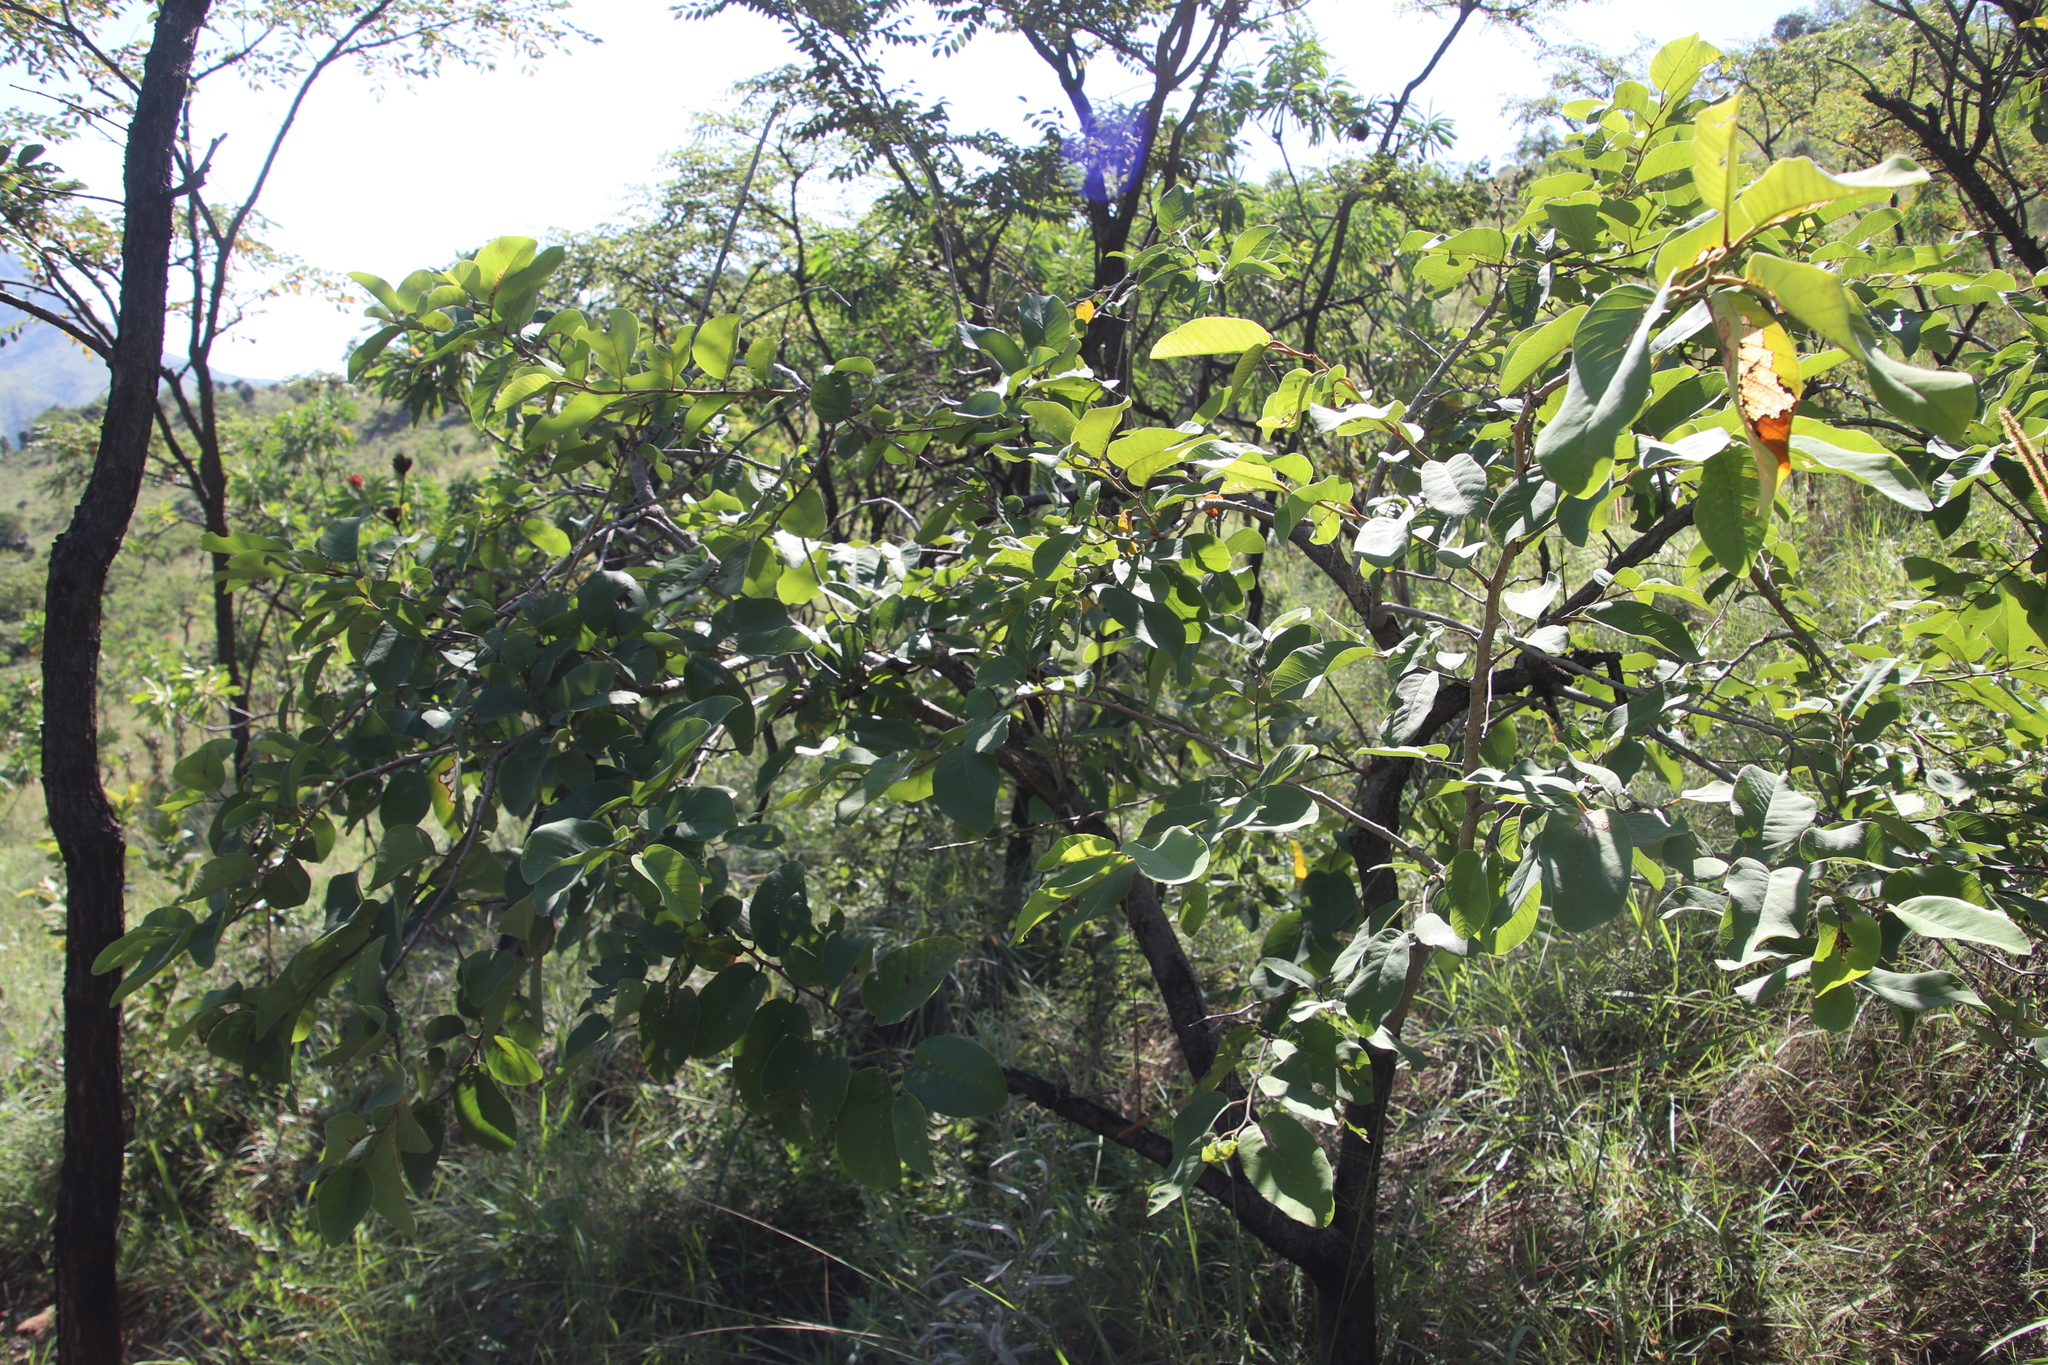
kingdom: Plantae
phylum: Tracheophyta
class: Magnoliopsida
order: Magnoliales
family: Annonaceae
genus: Annona
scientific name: Annona senegalensis
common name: Wild custard-apple
